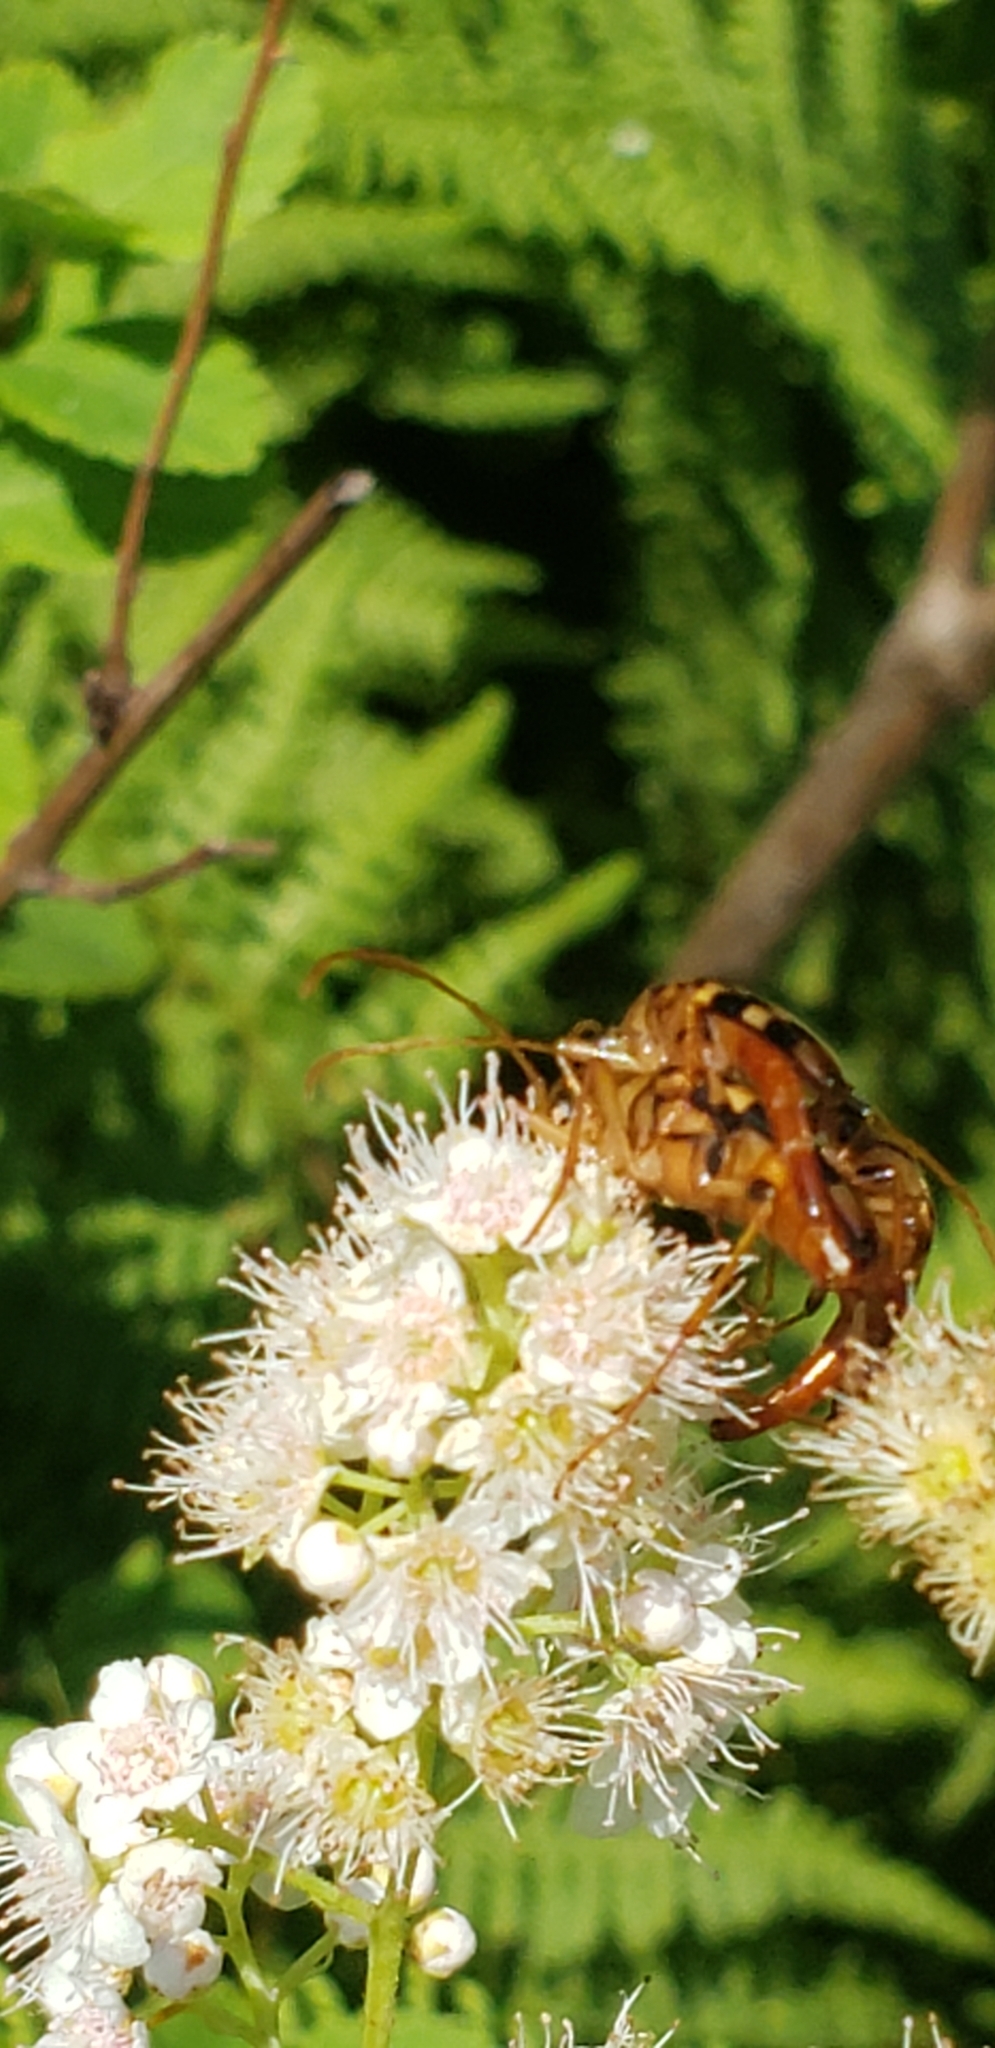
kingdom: Animalia
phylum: Arthropoda
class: Insecta
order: Coleoptera
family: Cerambycidae
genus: Strangalia
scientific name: Strangalia luteicornis
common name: Yellow-horned flower longhorn beetle
